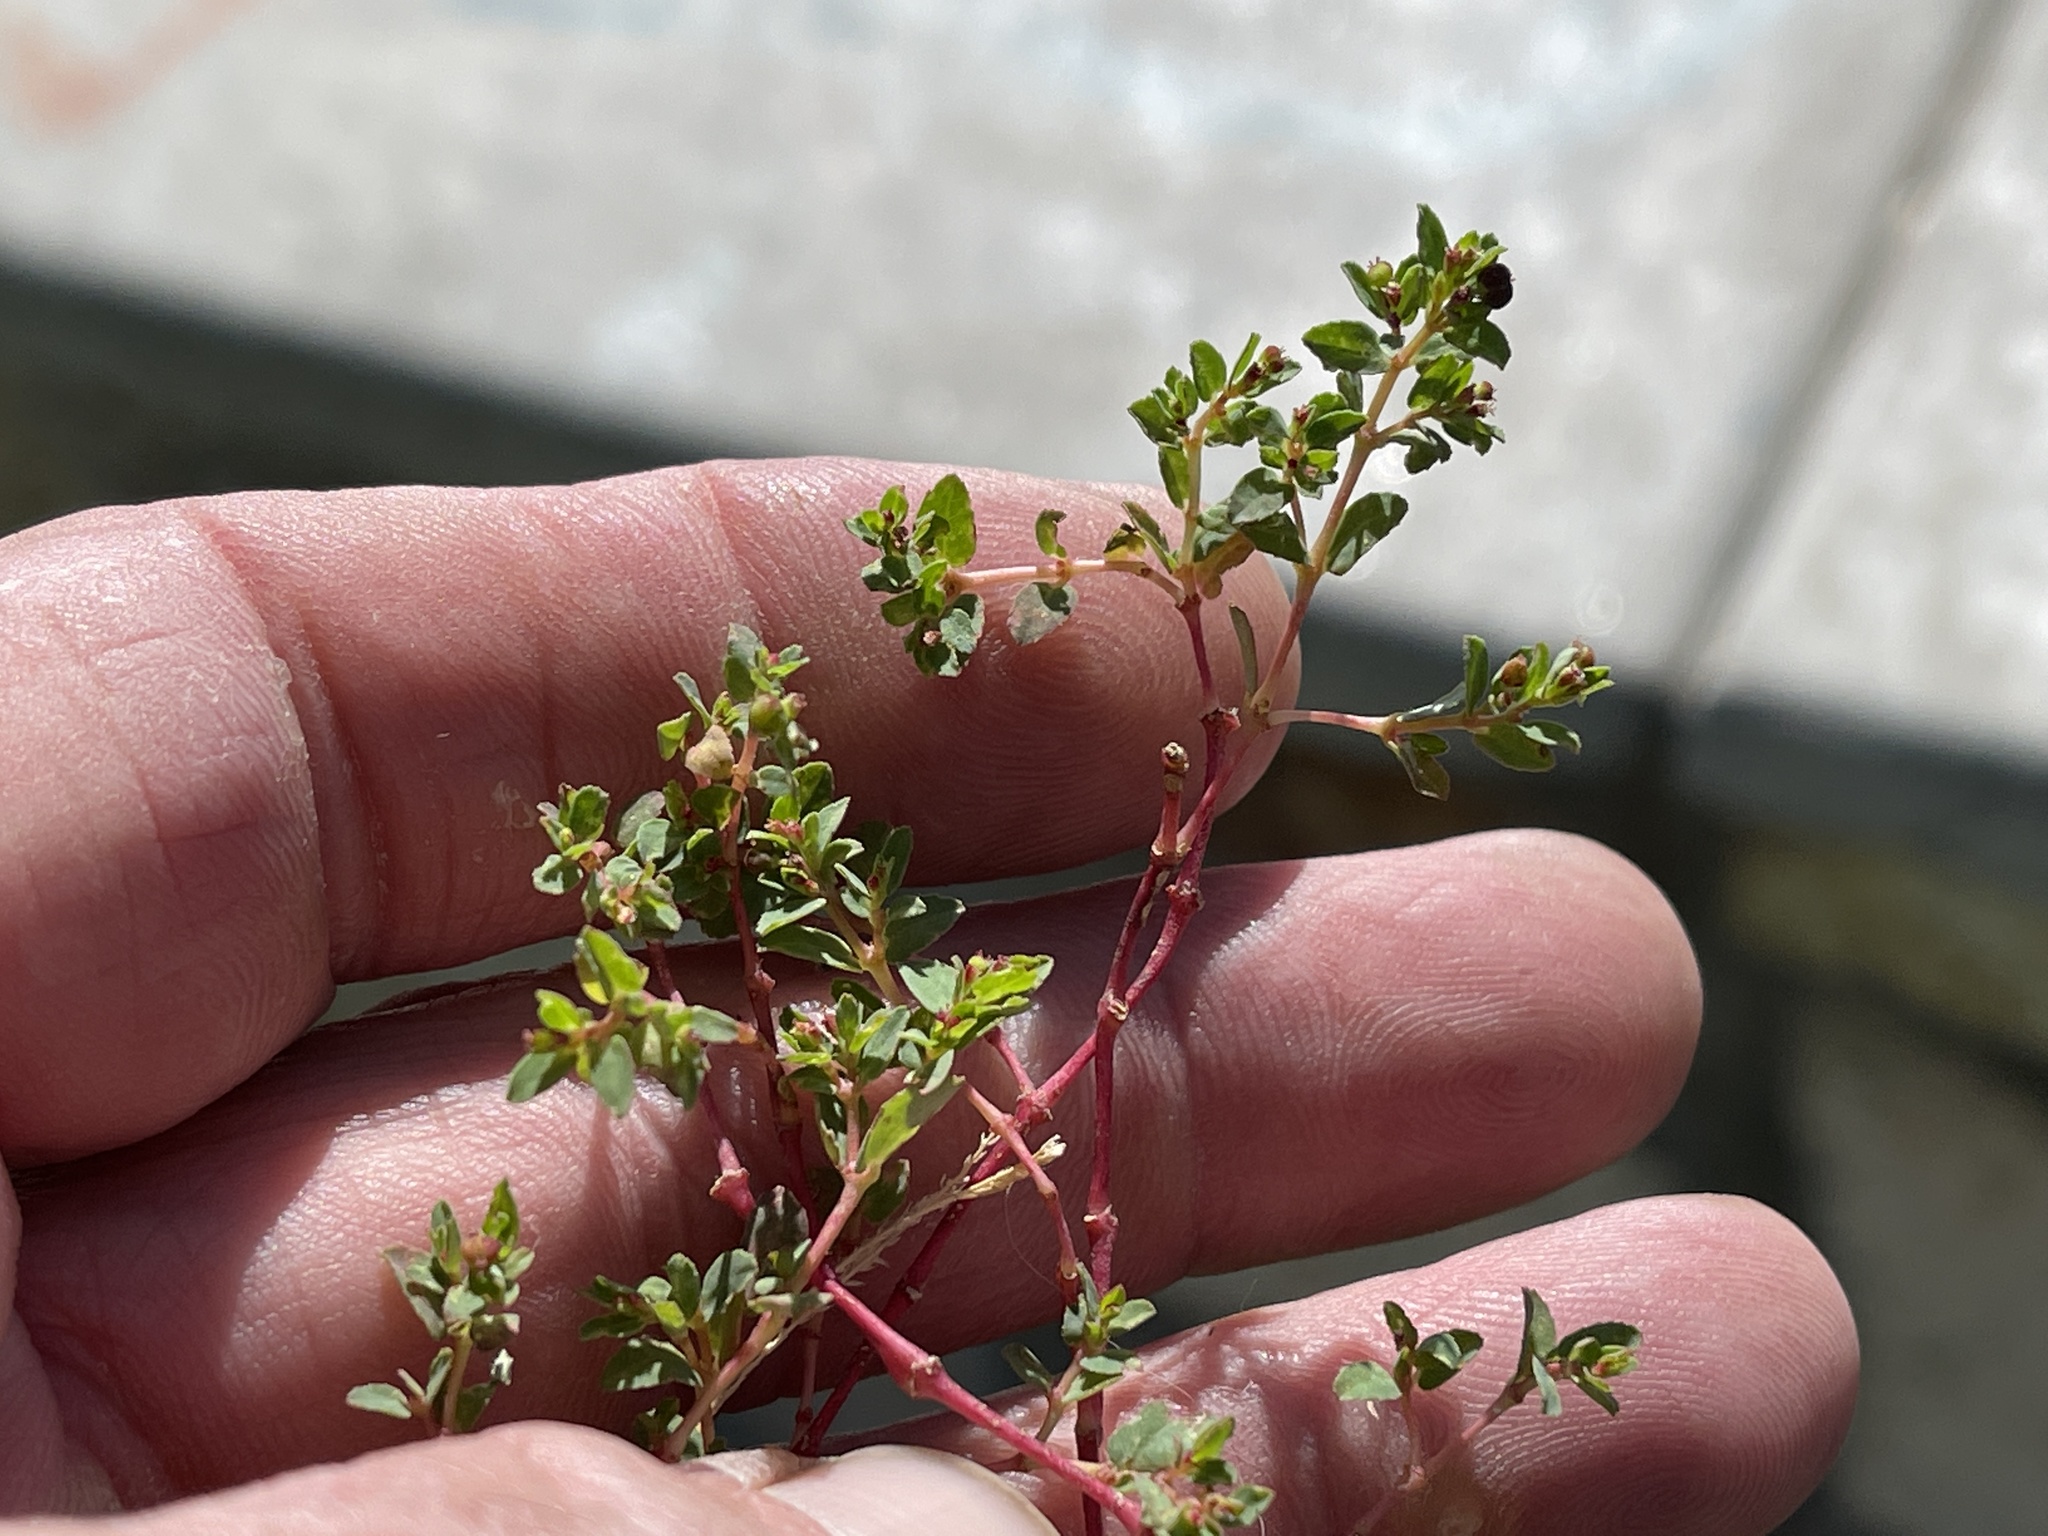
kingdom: Plantae
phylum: Tracheophyta
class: Magnoliopsida
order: Malpighiales
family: Euphorbiaceae
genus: Euphorbia
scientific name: Euphorbia vermiculata
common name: Hairy spurge
